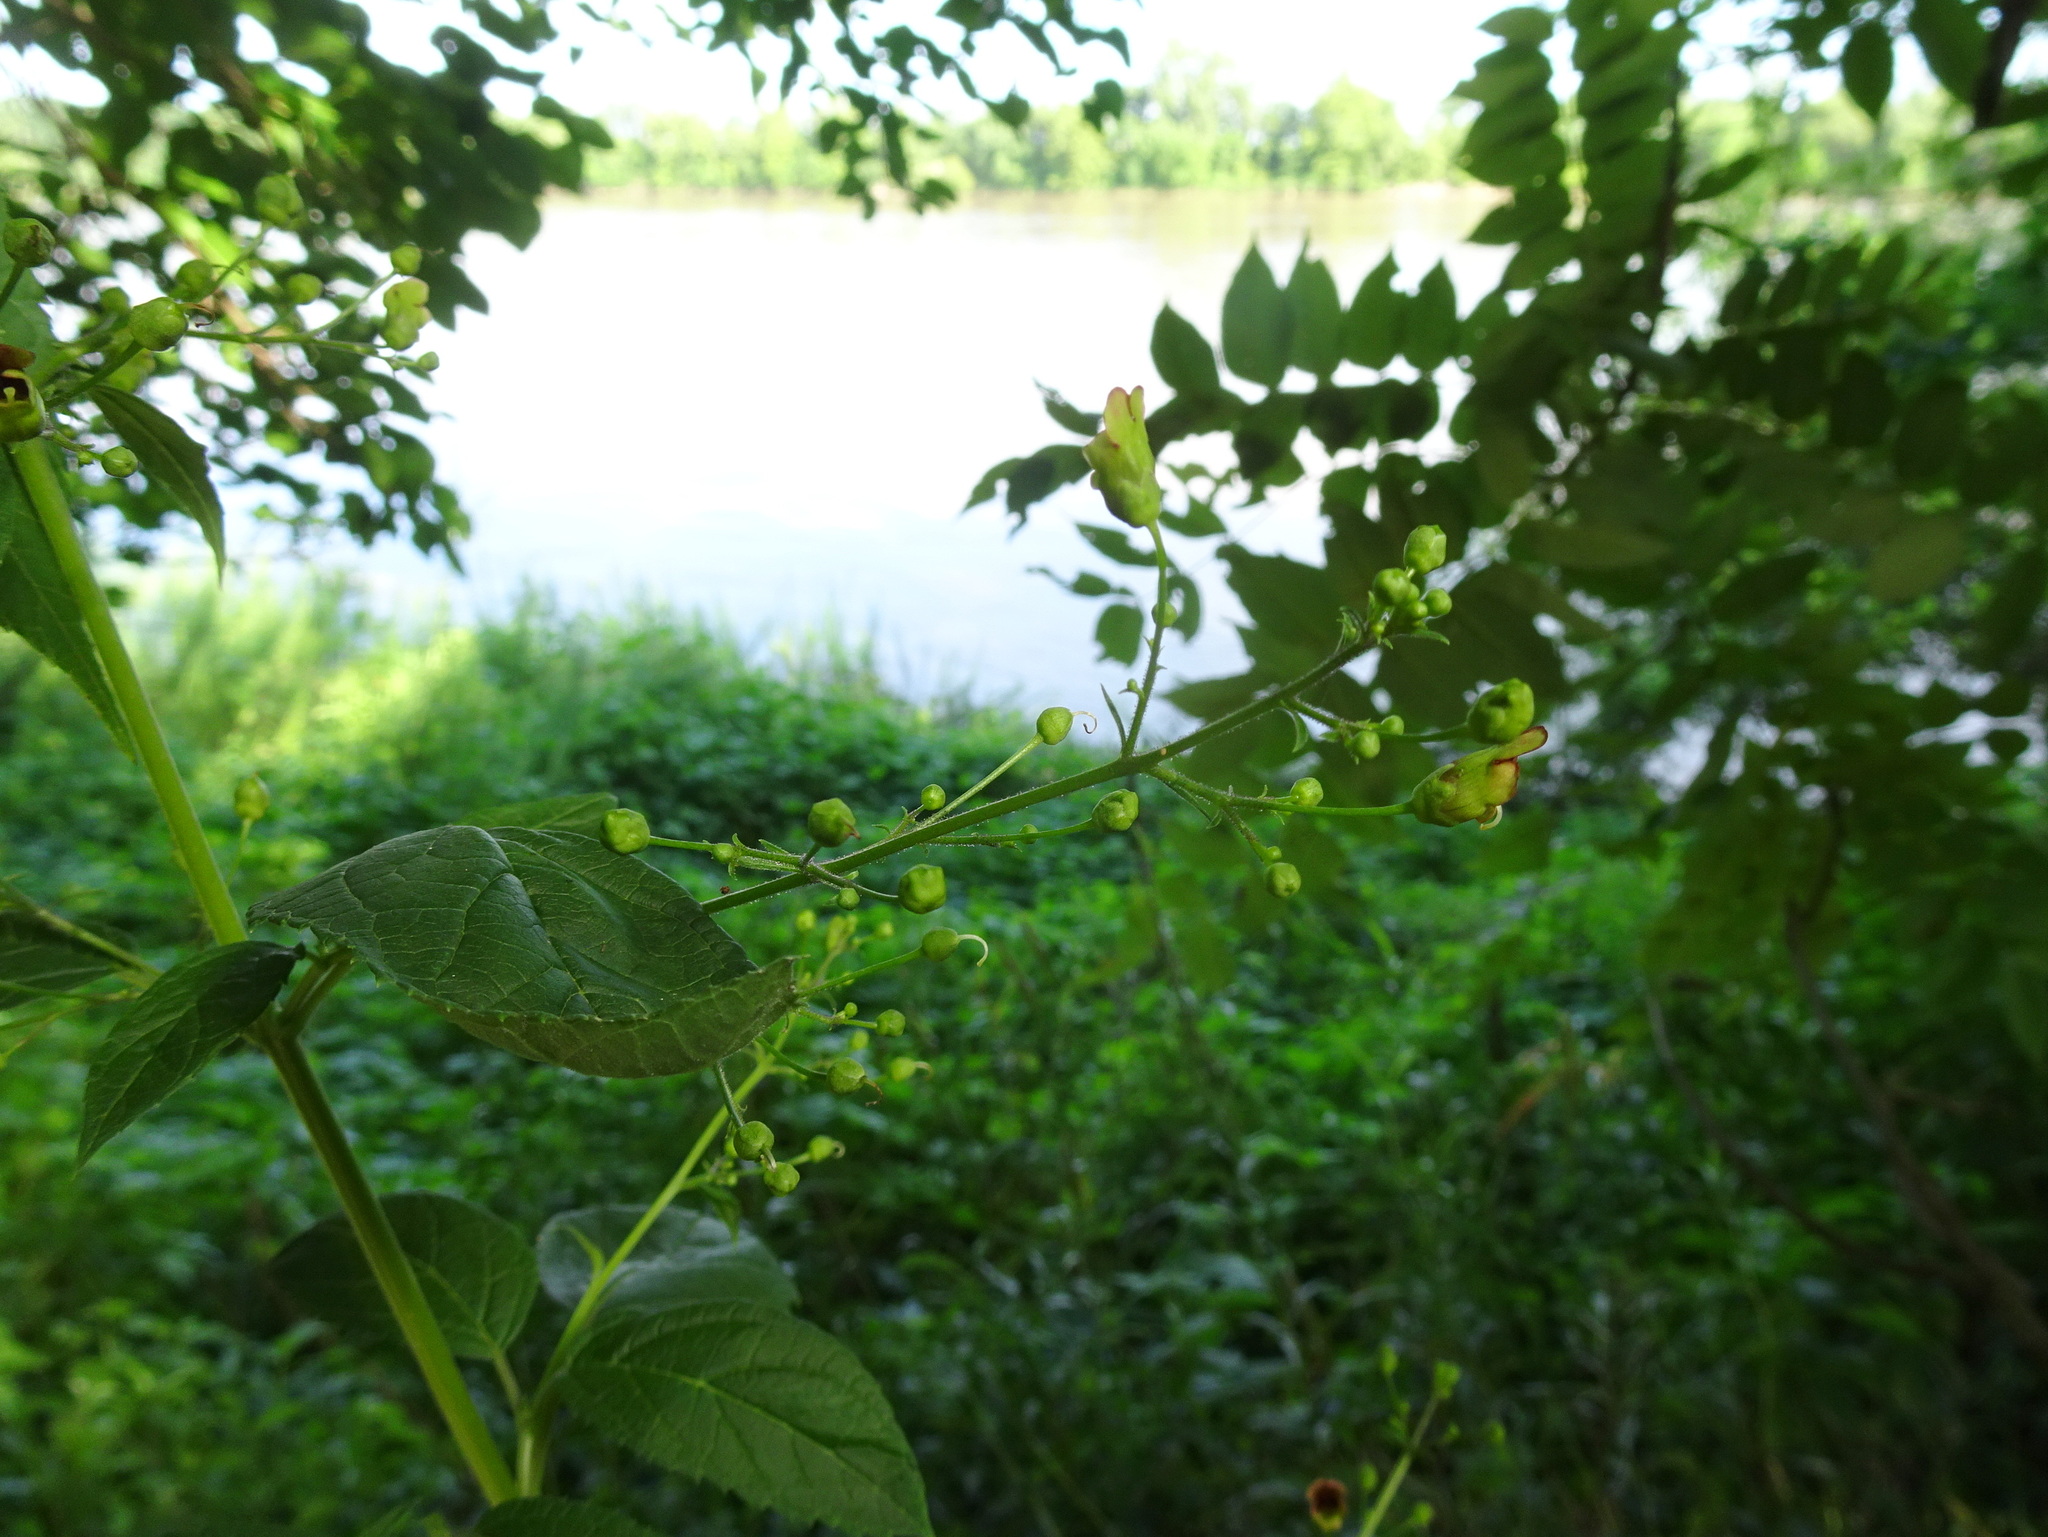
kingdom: Plantae
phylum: Tracheophyta
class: Magnoliopsida
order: Lamiales
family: Scrophulariaceae
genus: Scrophularia
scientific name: Scrophularia marilandica
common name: Eastern figwort
